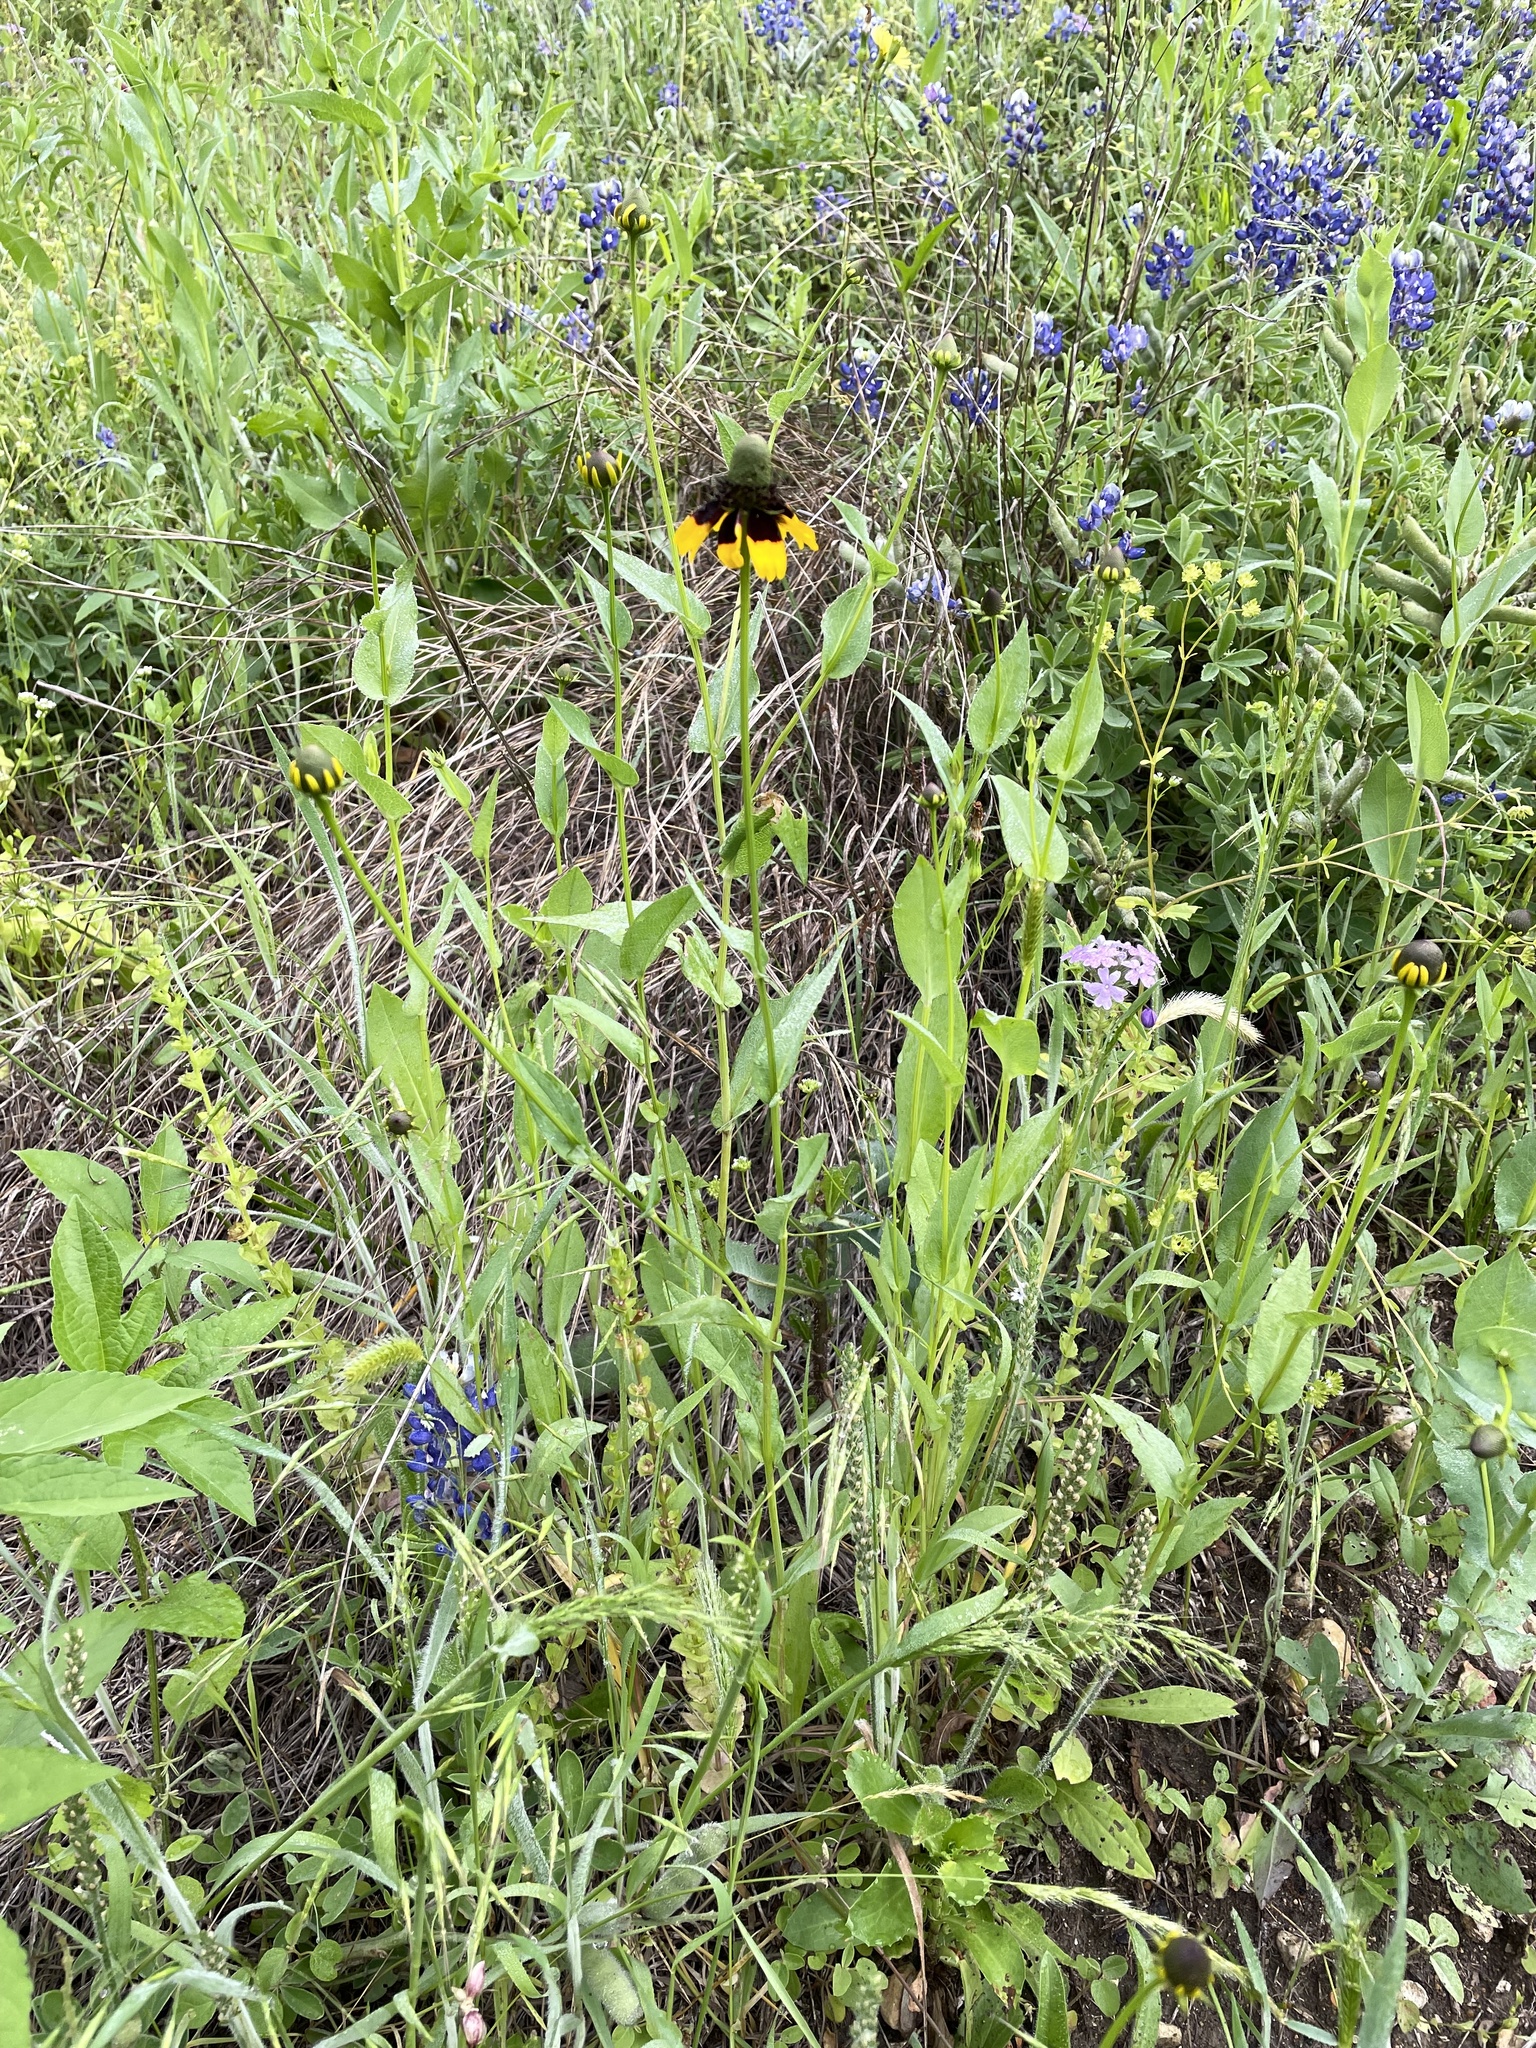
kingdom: Plantae
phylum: Tracheophyta
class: Magnoliopsida
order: Asterales
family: Asteraceae
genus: Rudbeckia
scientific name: Rudbeckia amplexicaulis
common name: Clasping-leaf coneflower
